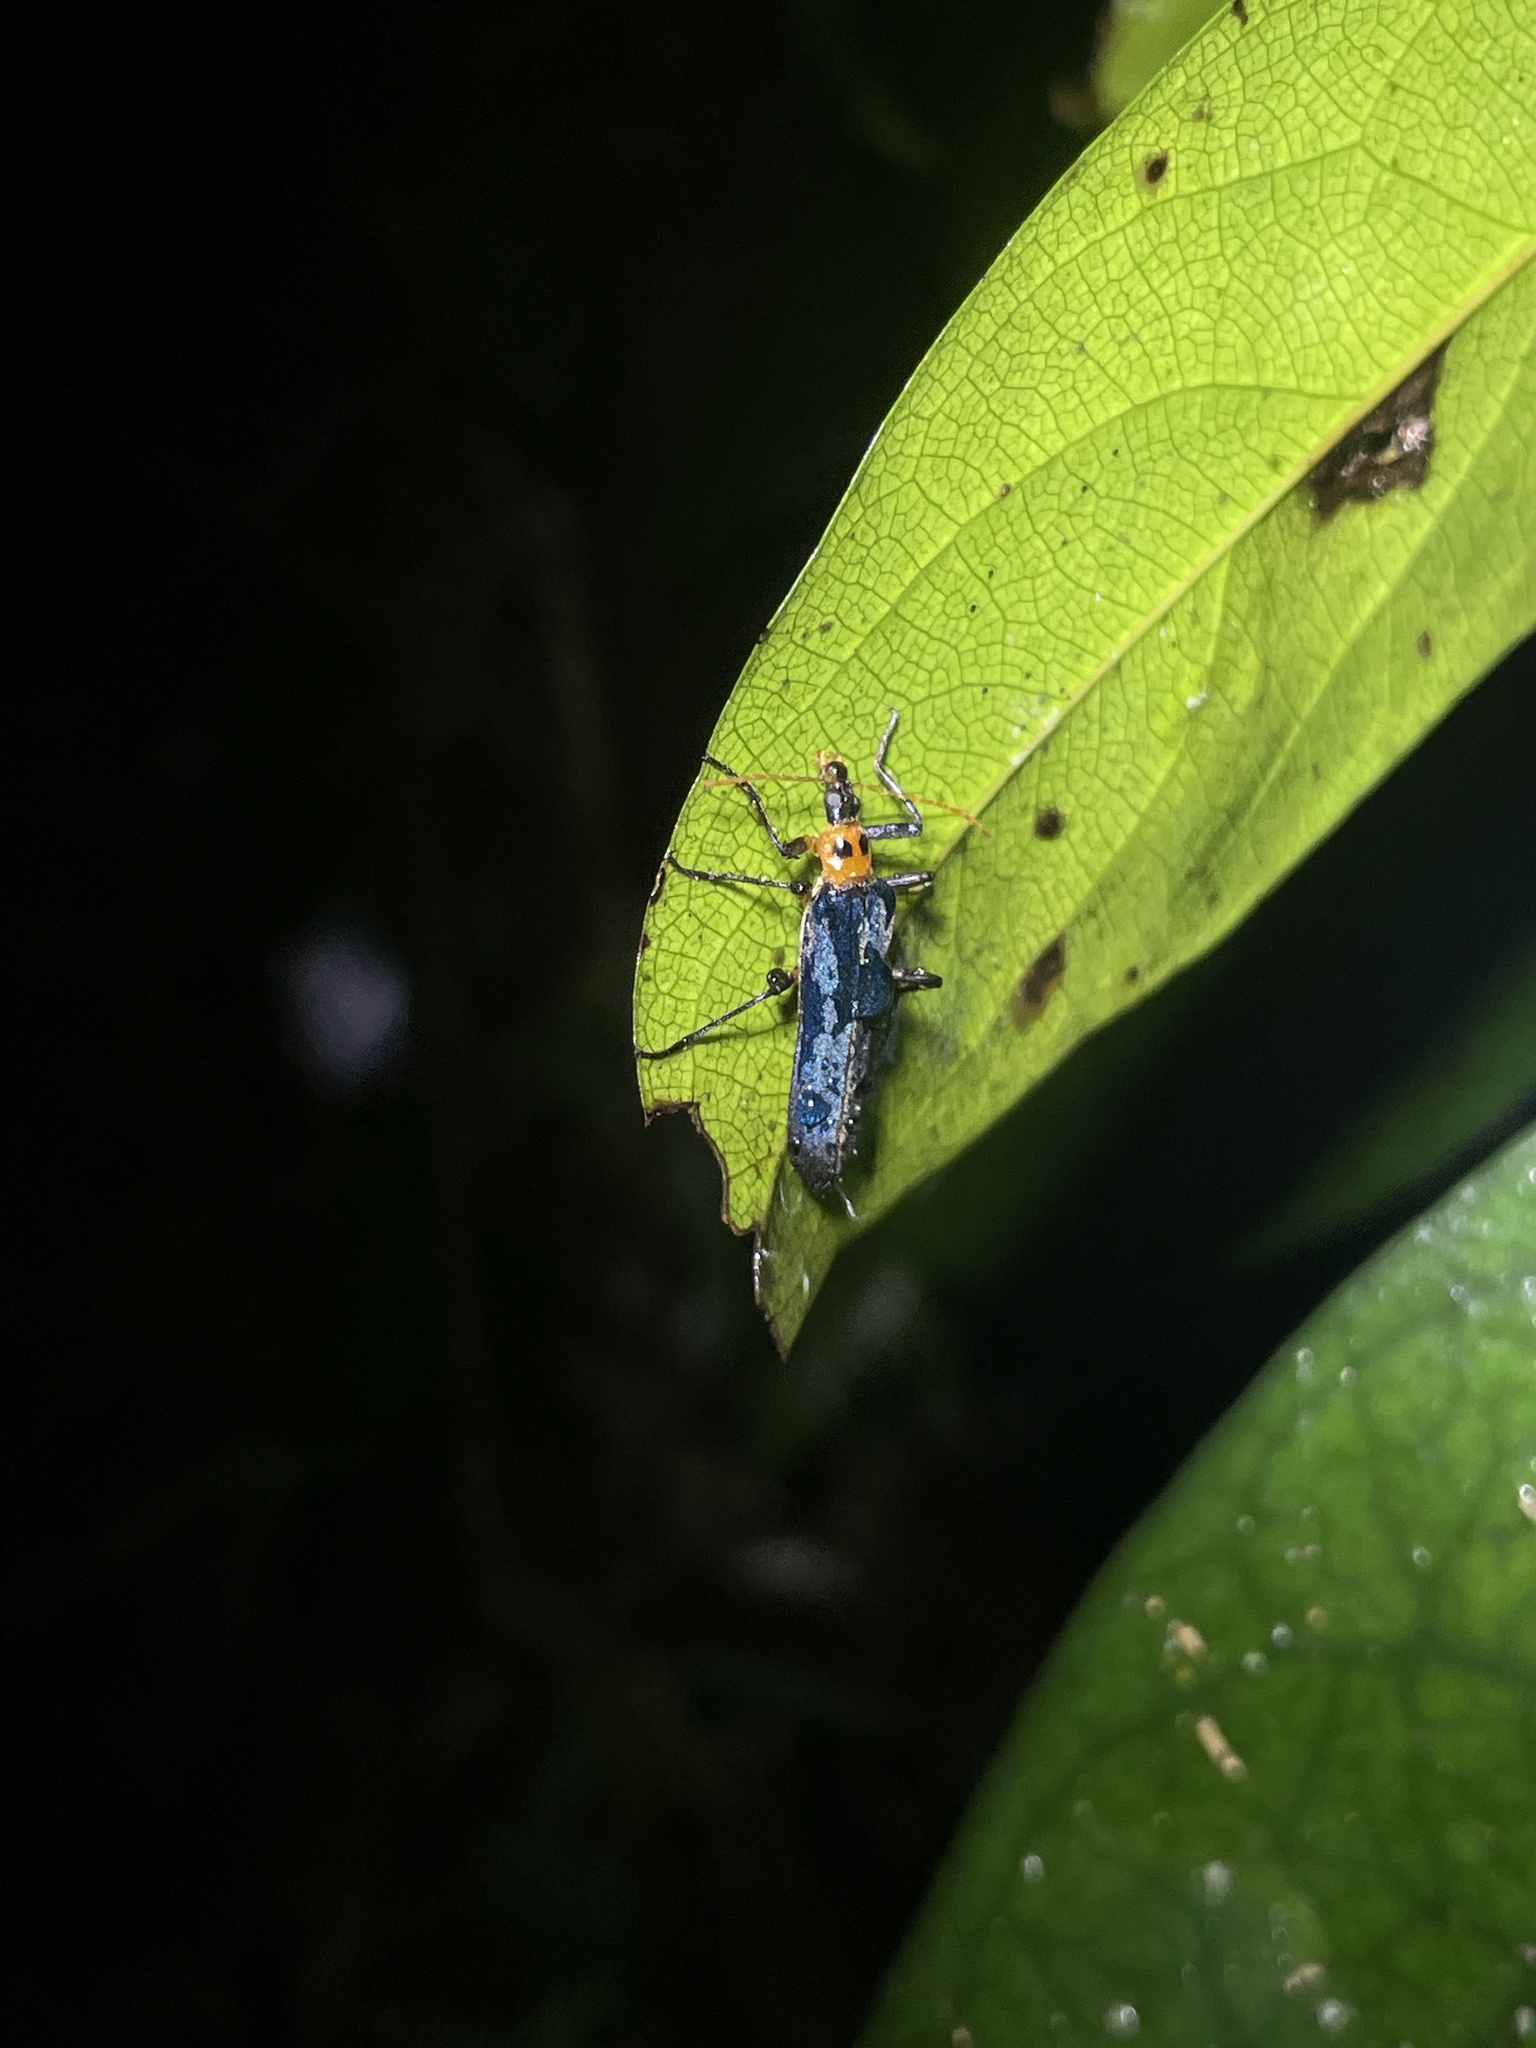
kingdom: Animalia
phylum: Arthropoda
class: Insecta
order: Coleoptera
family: Prionoceridae
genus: Idgia
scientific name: Idgia
